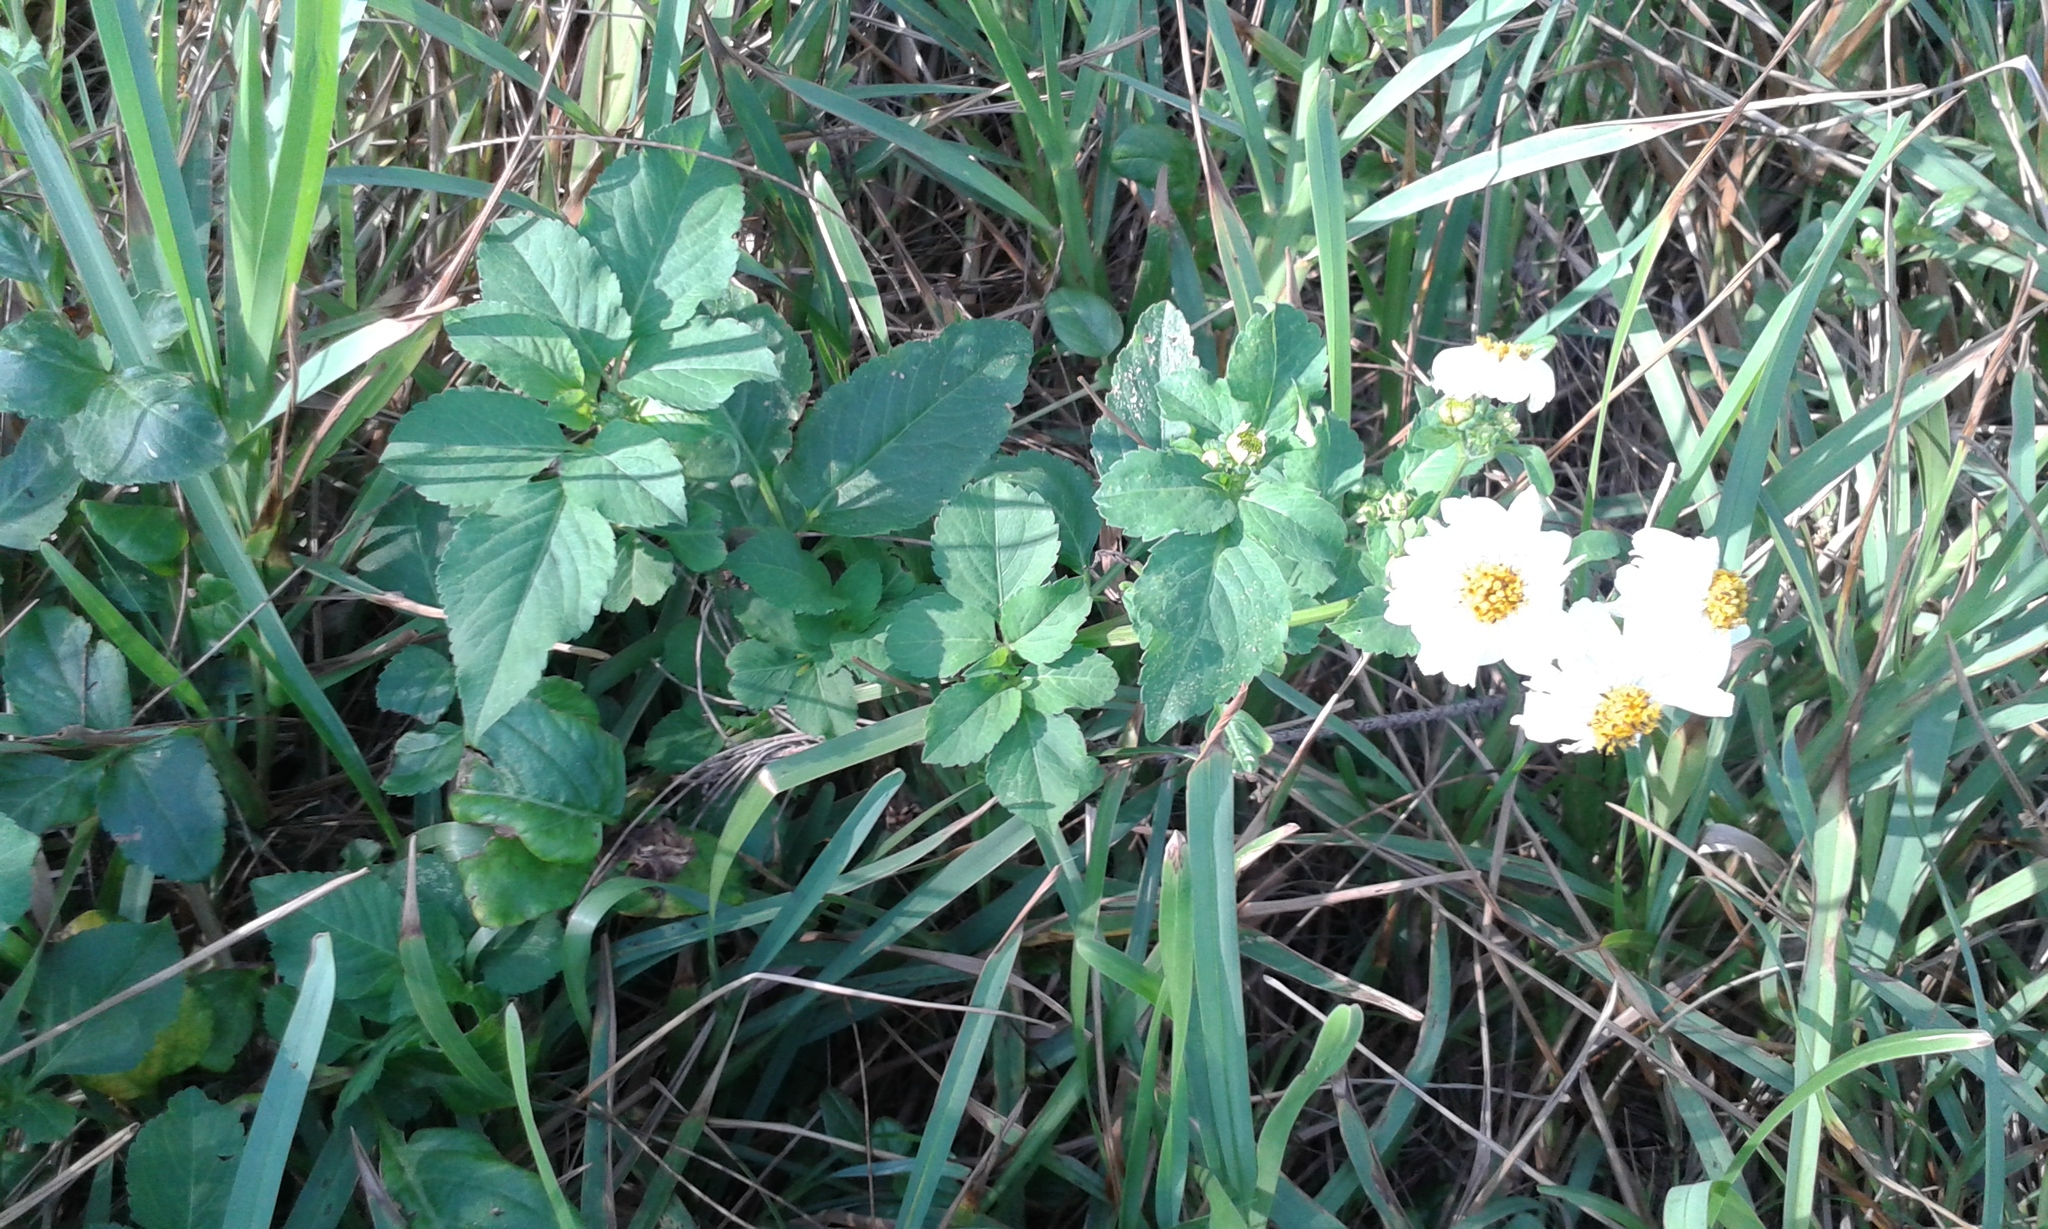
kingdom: Plantae
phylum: Tracheophyta
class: Magnoliopsida
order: Asterales
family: Asteraceae
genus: Bidens
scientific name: Bidens alba
